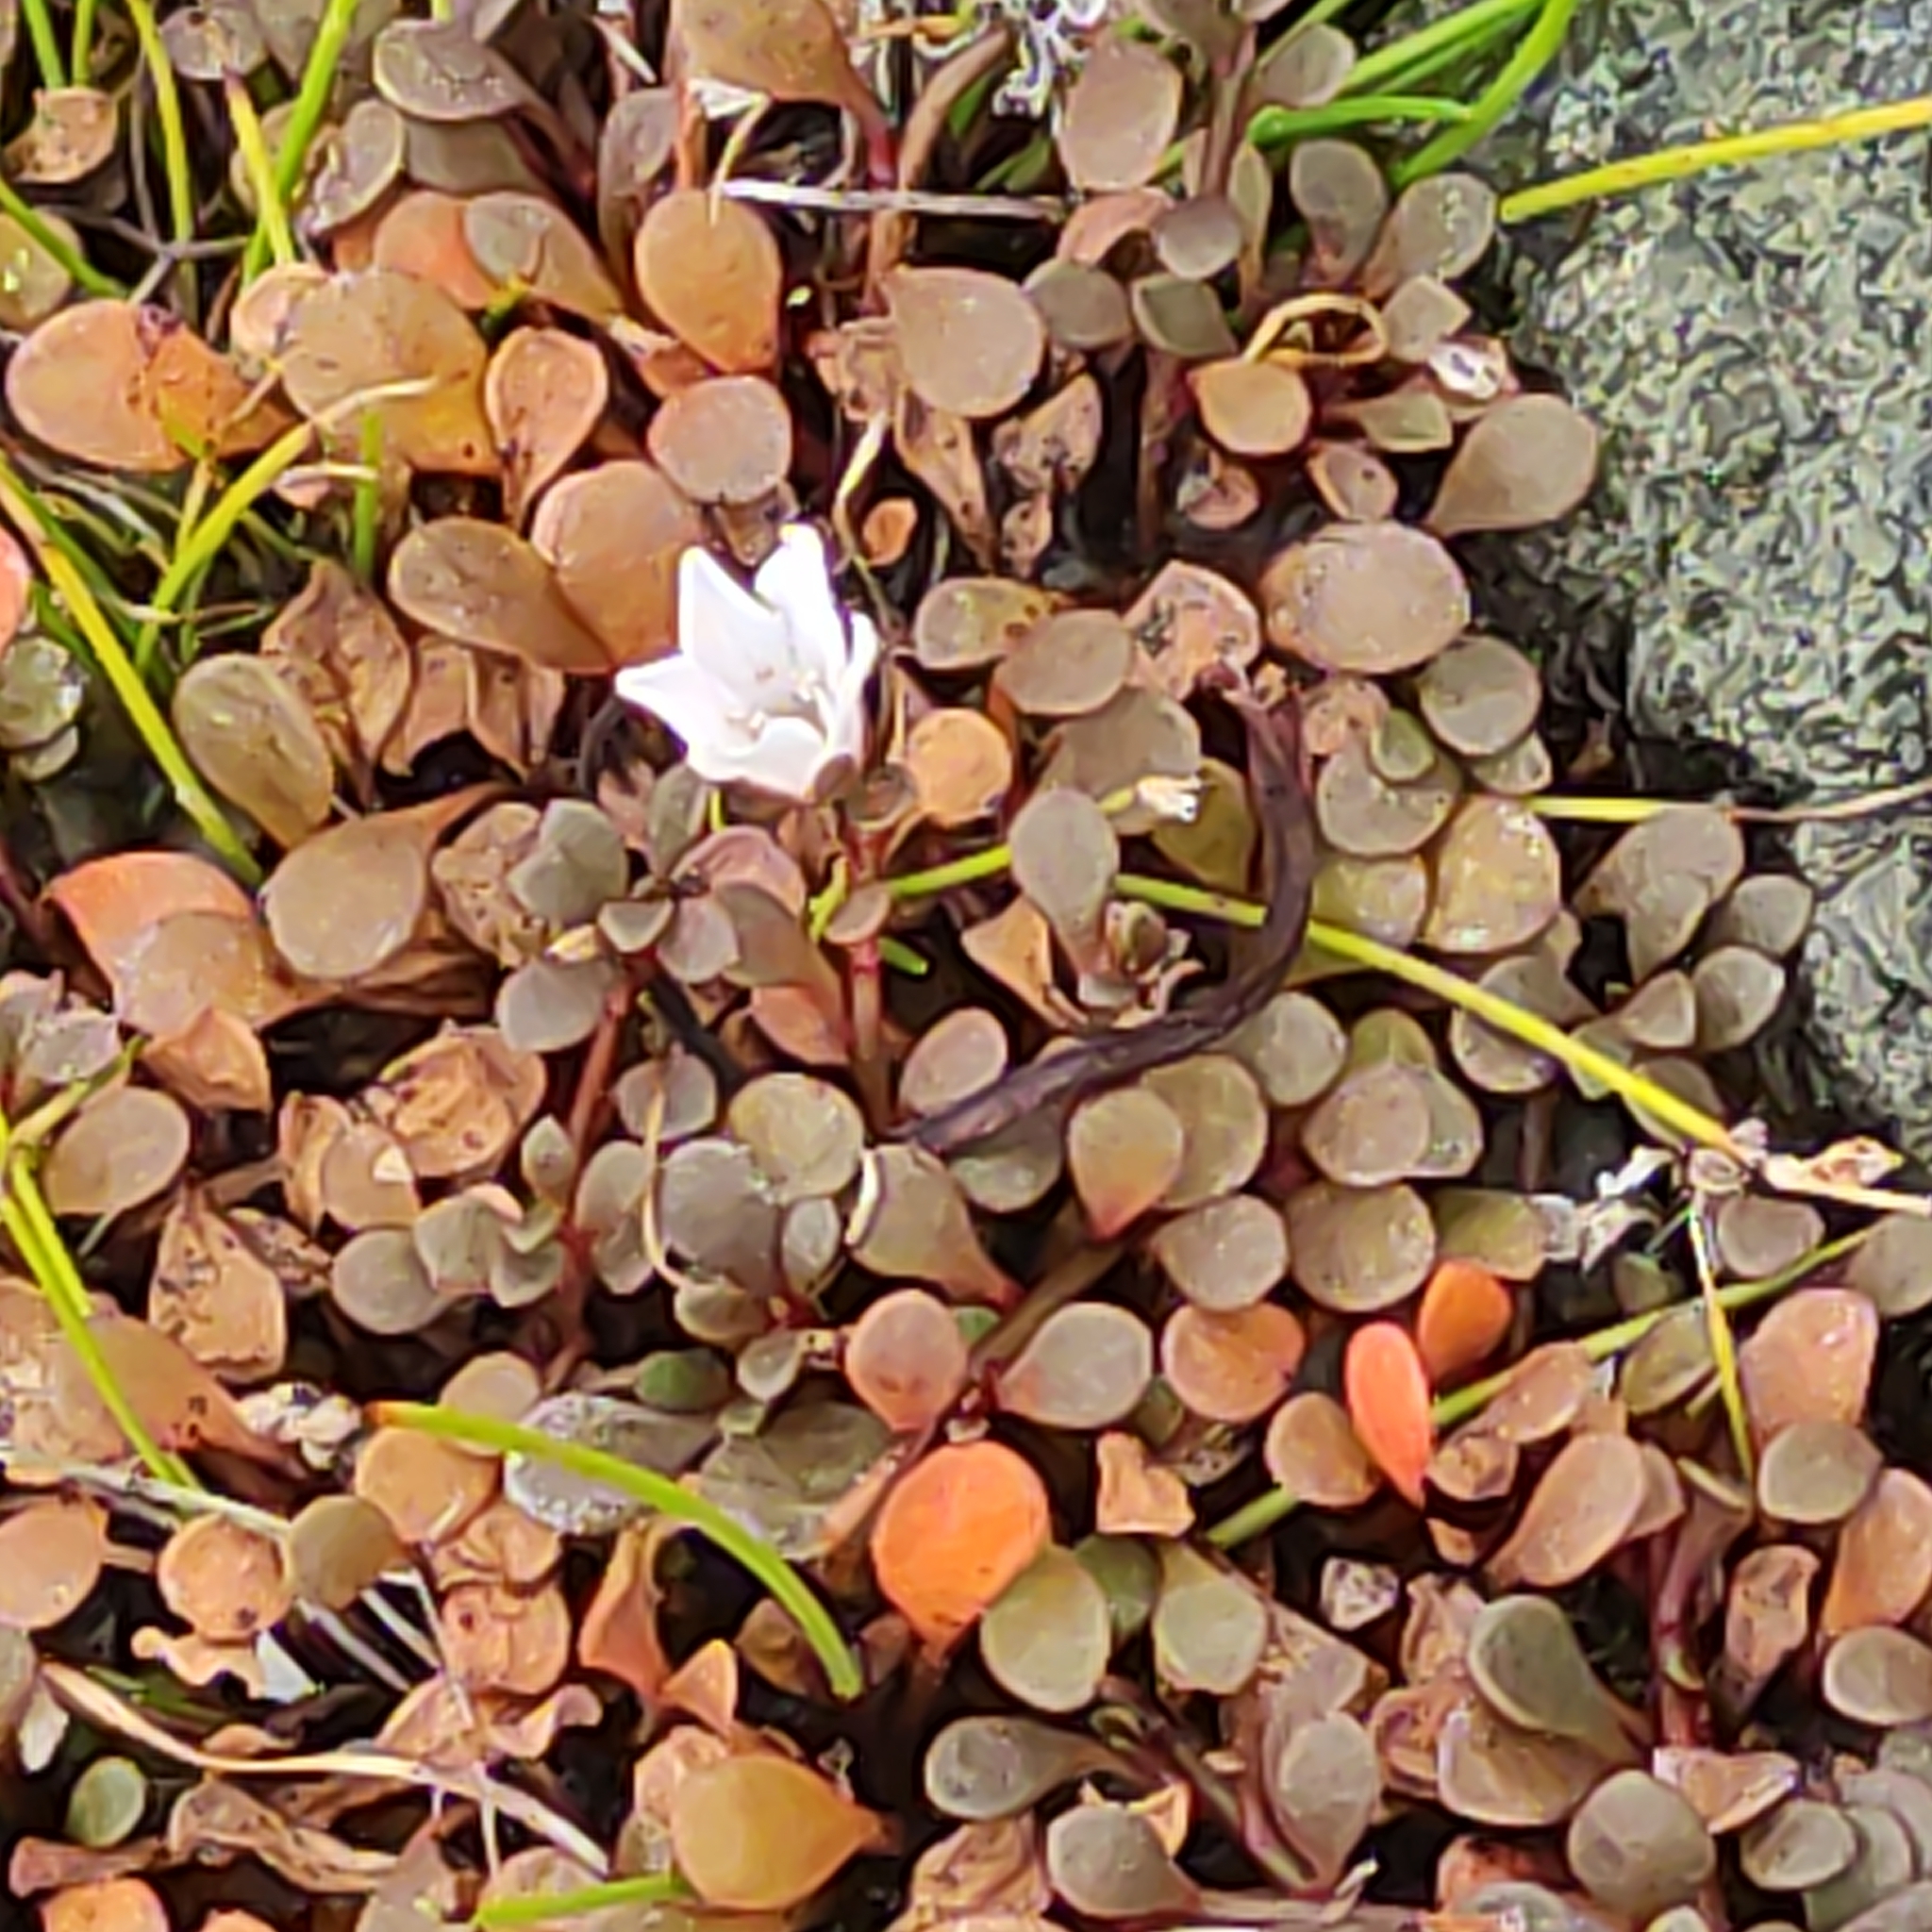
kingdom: Plantae
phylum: Tracheophyta
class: Magnoliopsida
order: Ericales
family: Primulaceae
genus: Samolus
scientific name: Samolus repens
